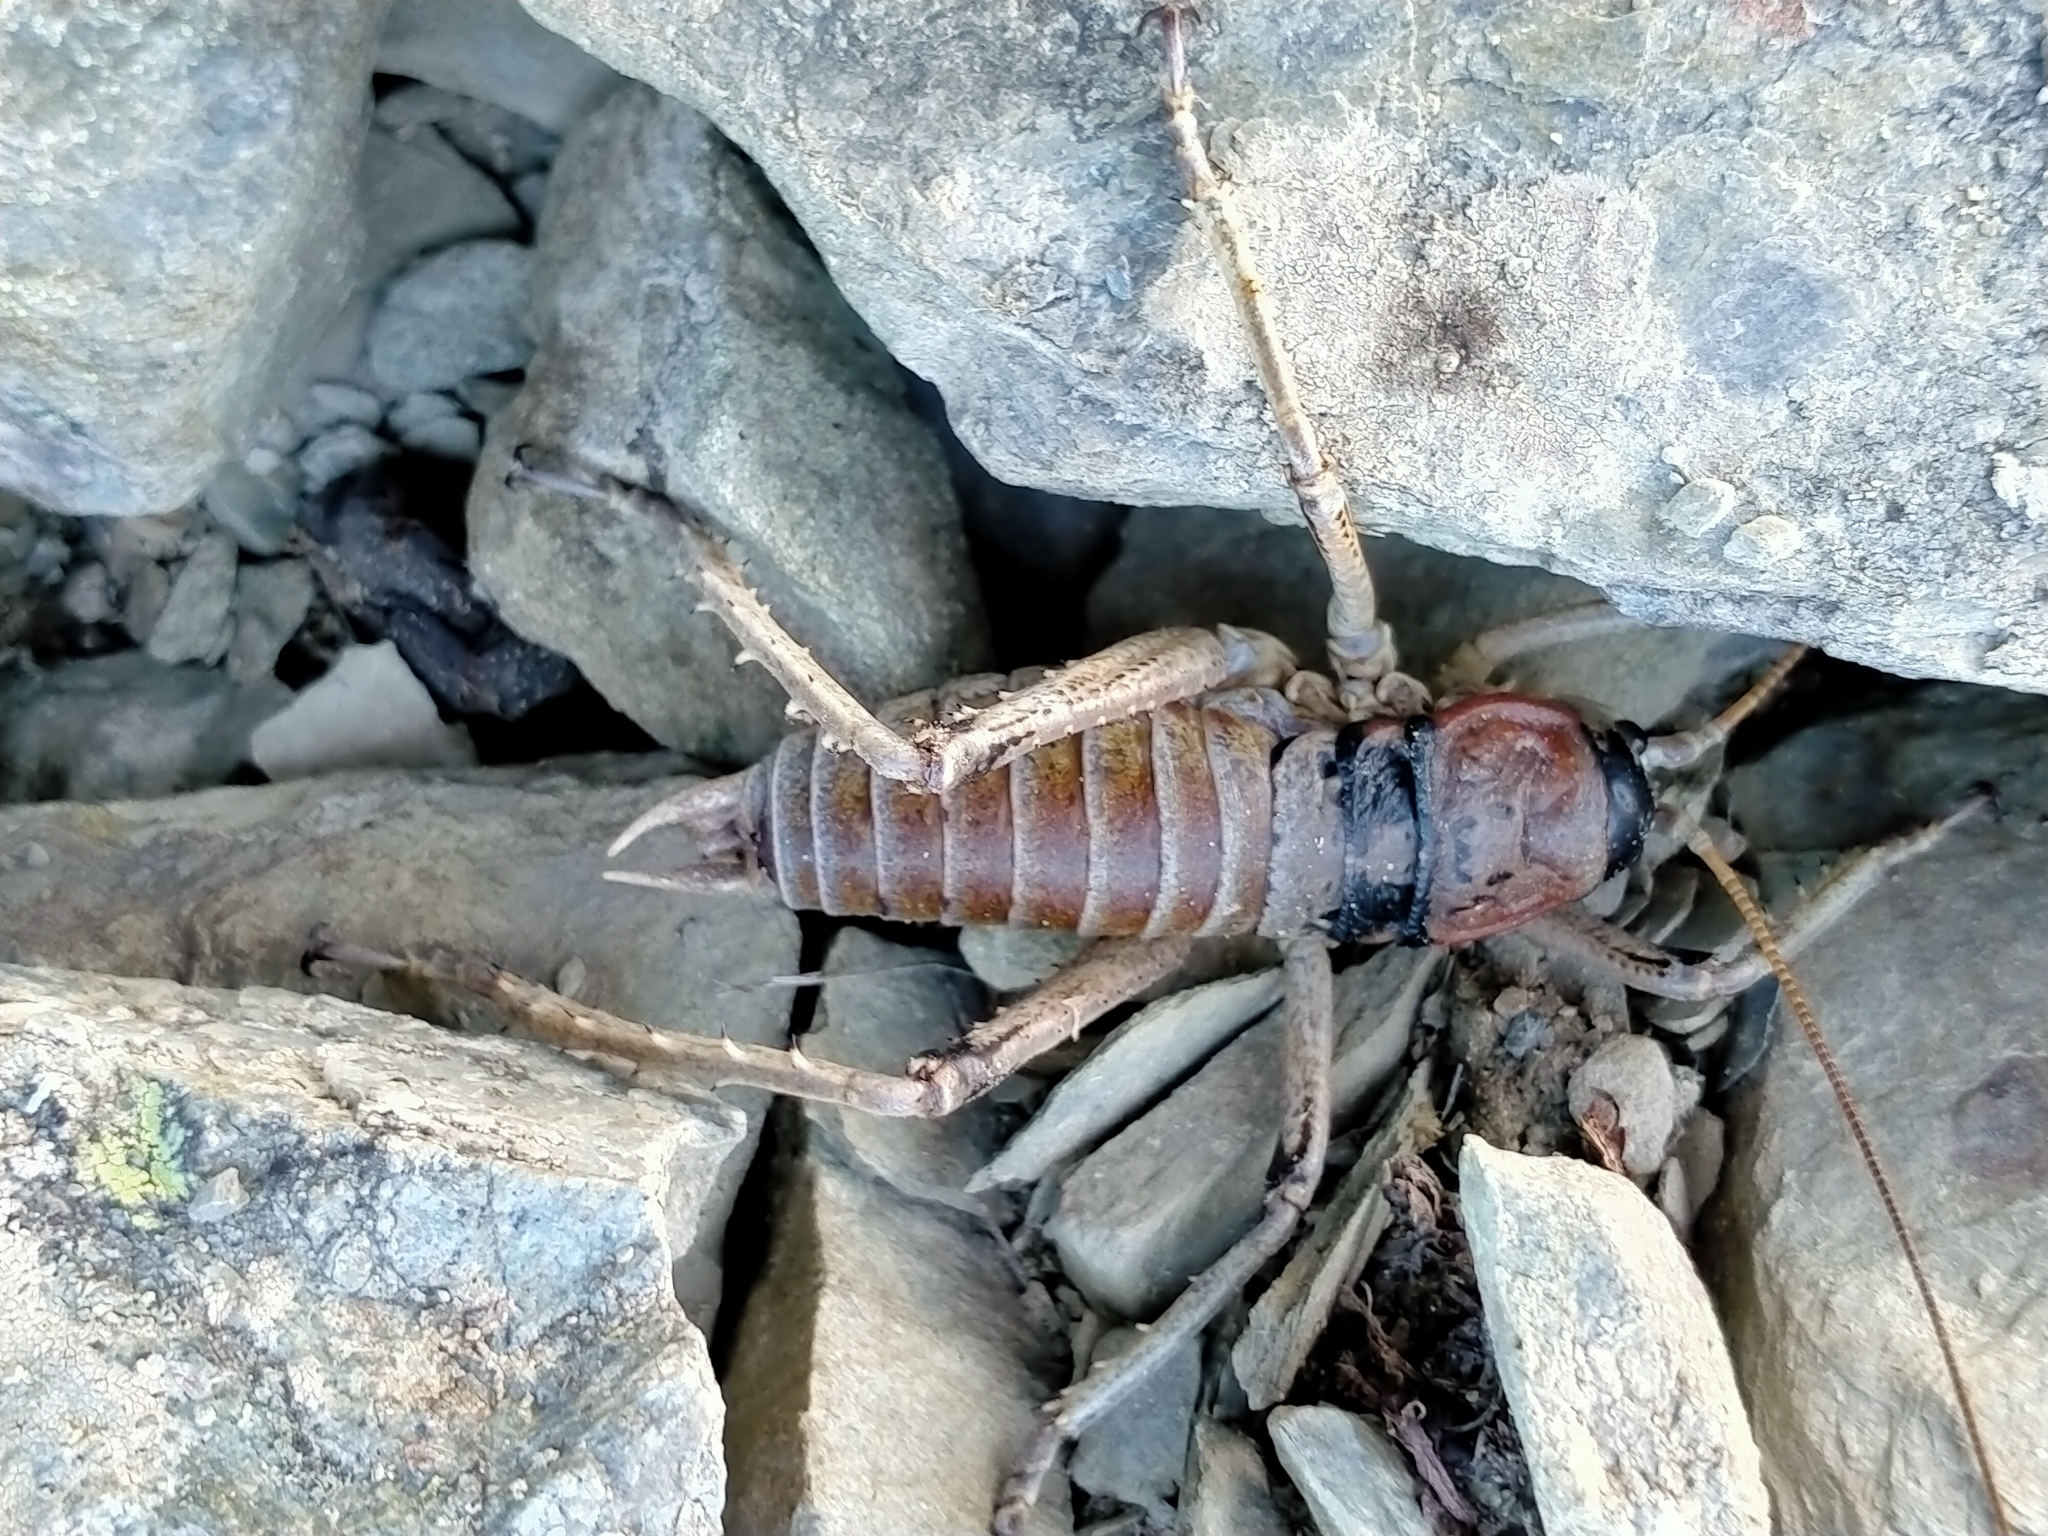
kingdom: Animalia
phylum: Arthropoda
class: Insecta
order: Orthoptera
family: Anostostomatidae
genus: Deinacrida
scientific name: Deinacrida connectens
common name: Scree weta
